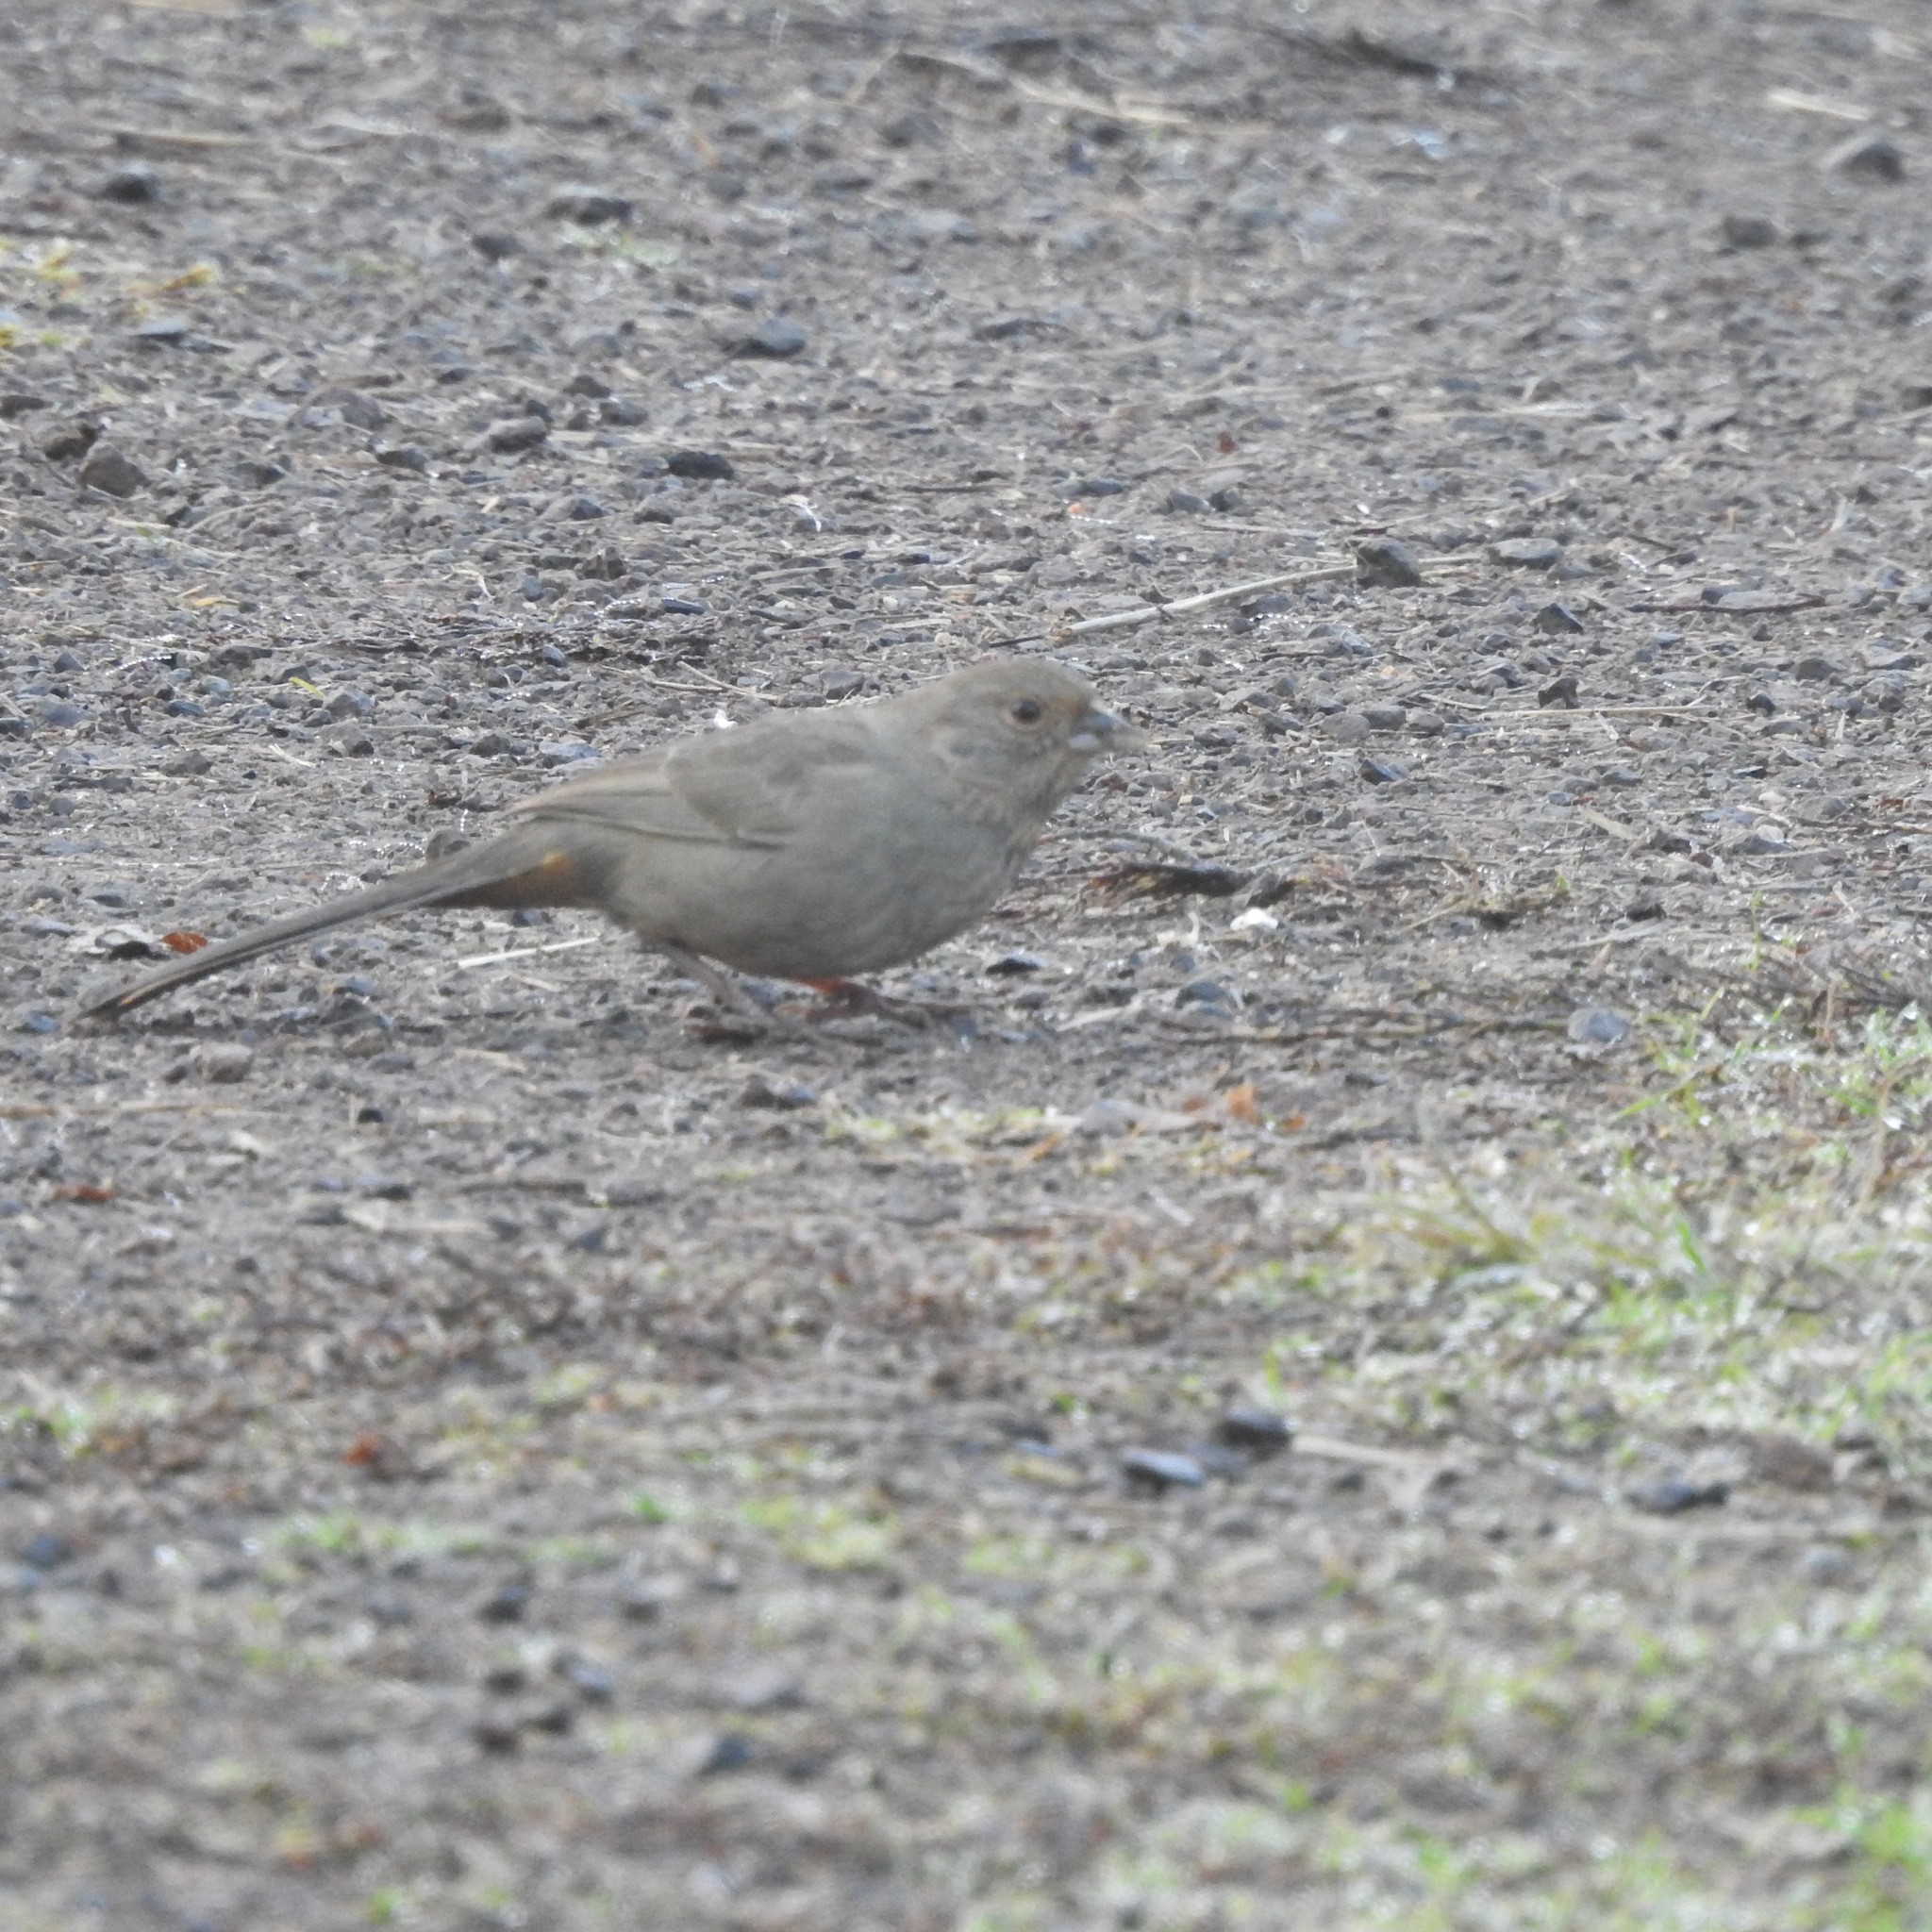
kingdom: Animalia
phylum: Chordata
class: Aves
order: Passeriformes
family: Passerellidae
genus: Melozone
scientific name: Melozone crissalis
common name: California towhee
